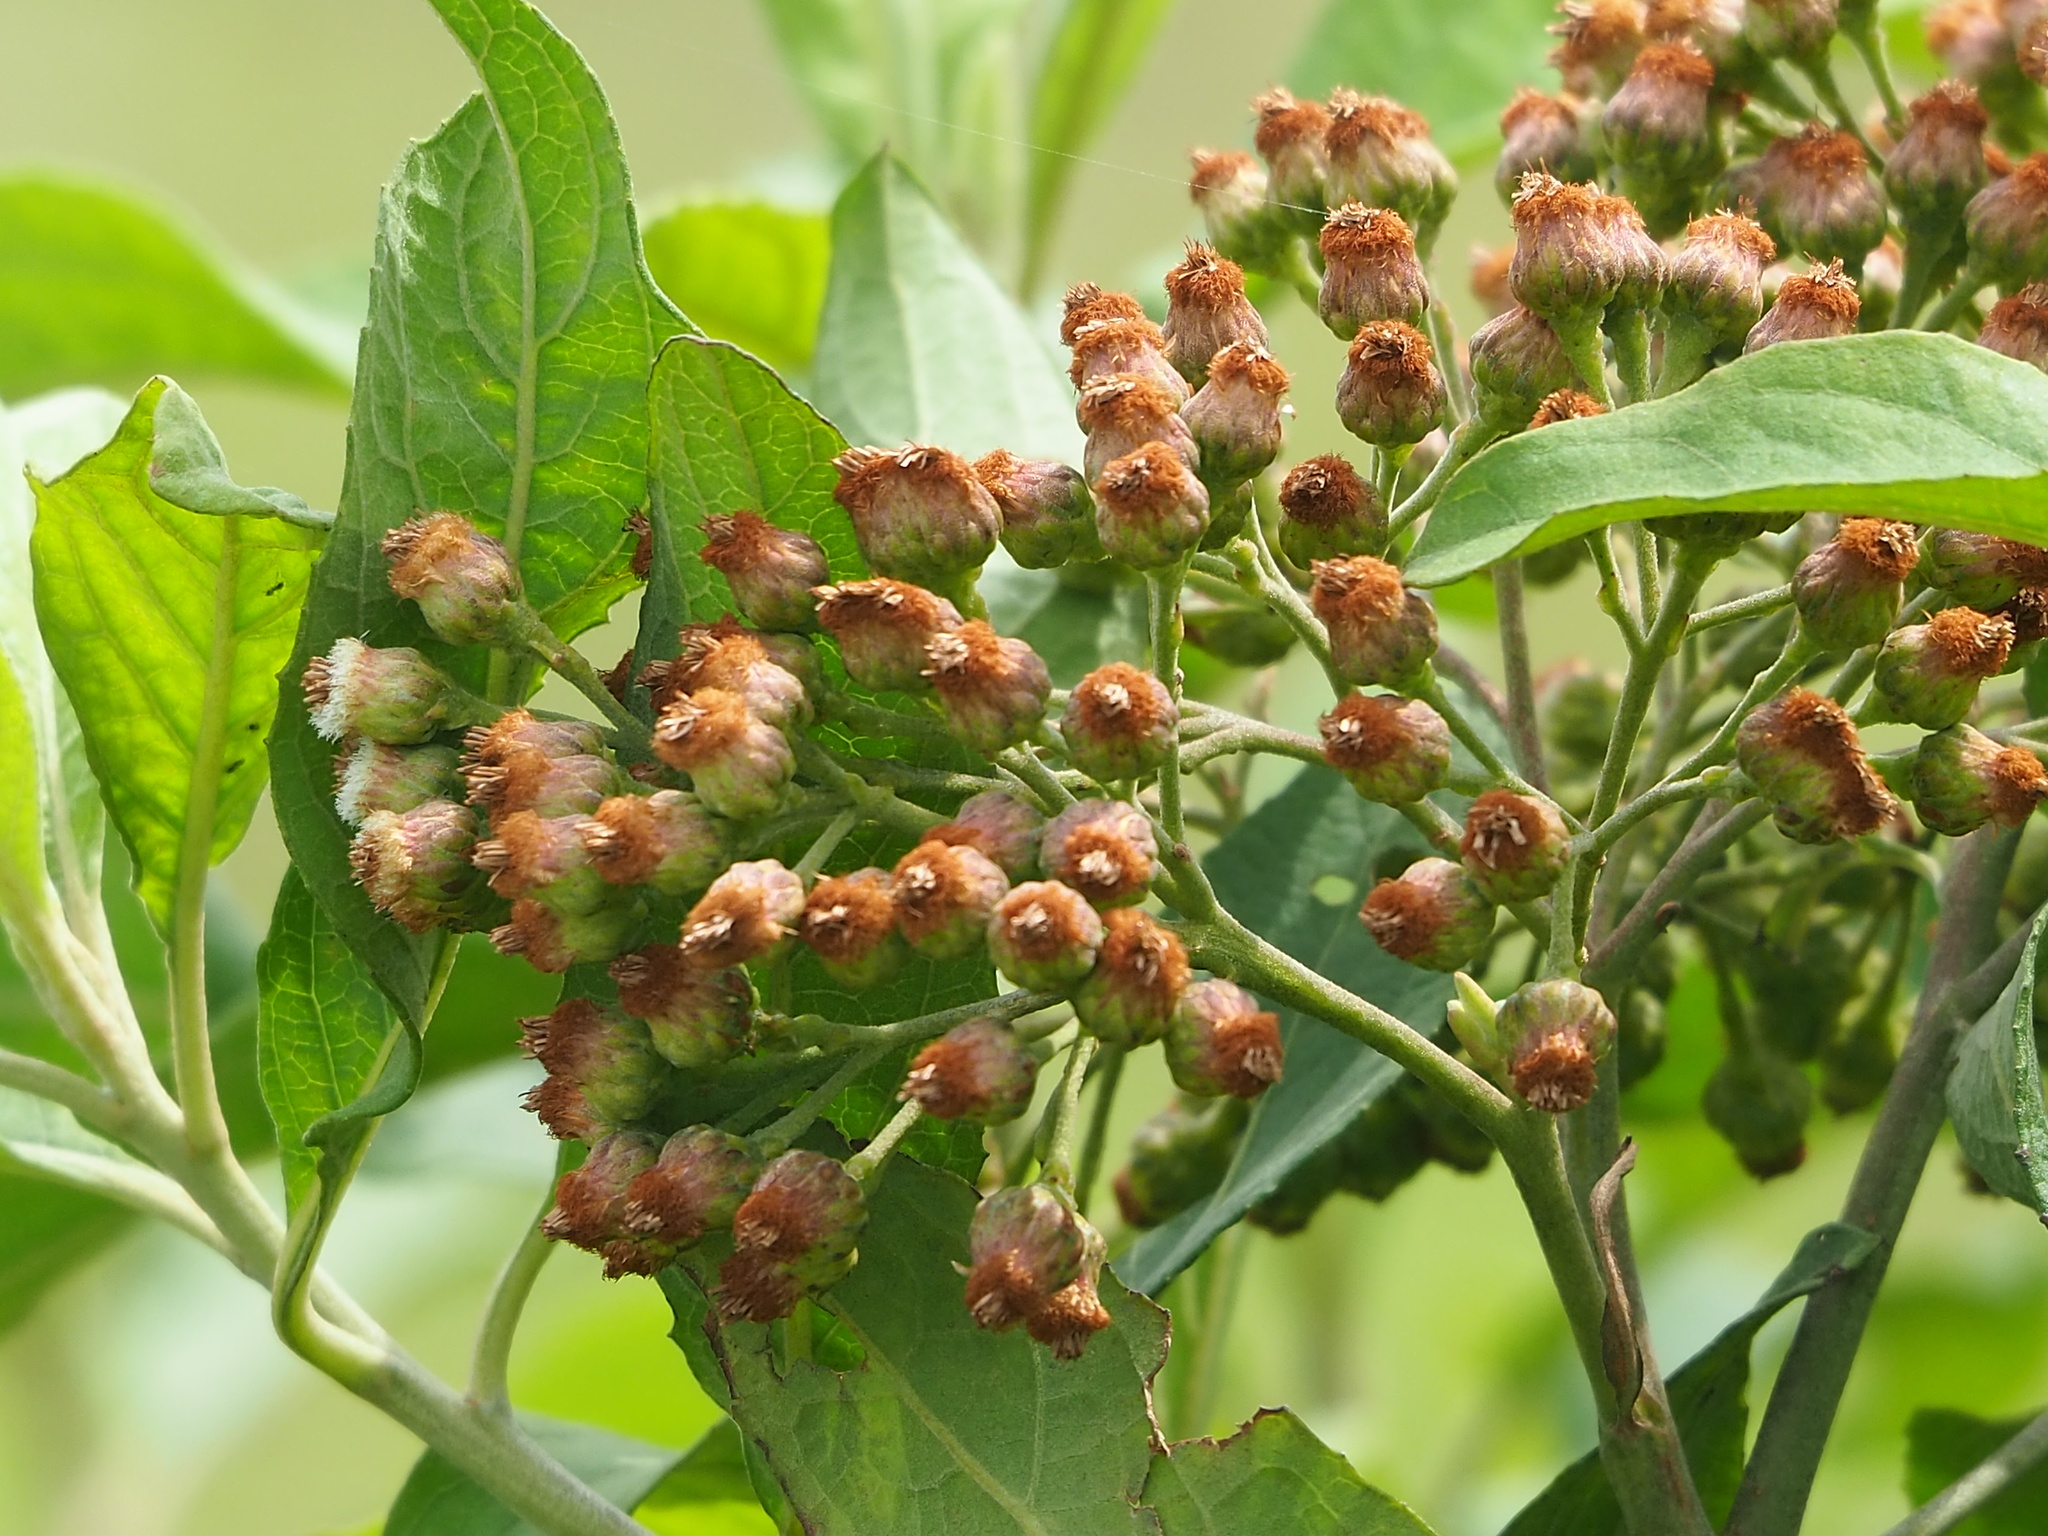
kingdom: Plantae
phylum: Tracheophyta
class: Magnoliopsida
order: Asterales
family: Asteraceae
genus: Pluchea
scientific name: Pluchea carolinensis
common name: Marsh fleabane
